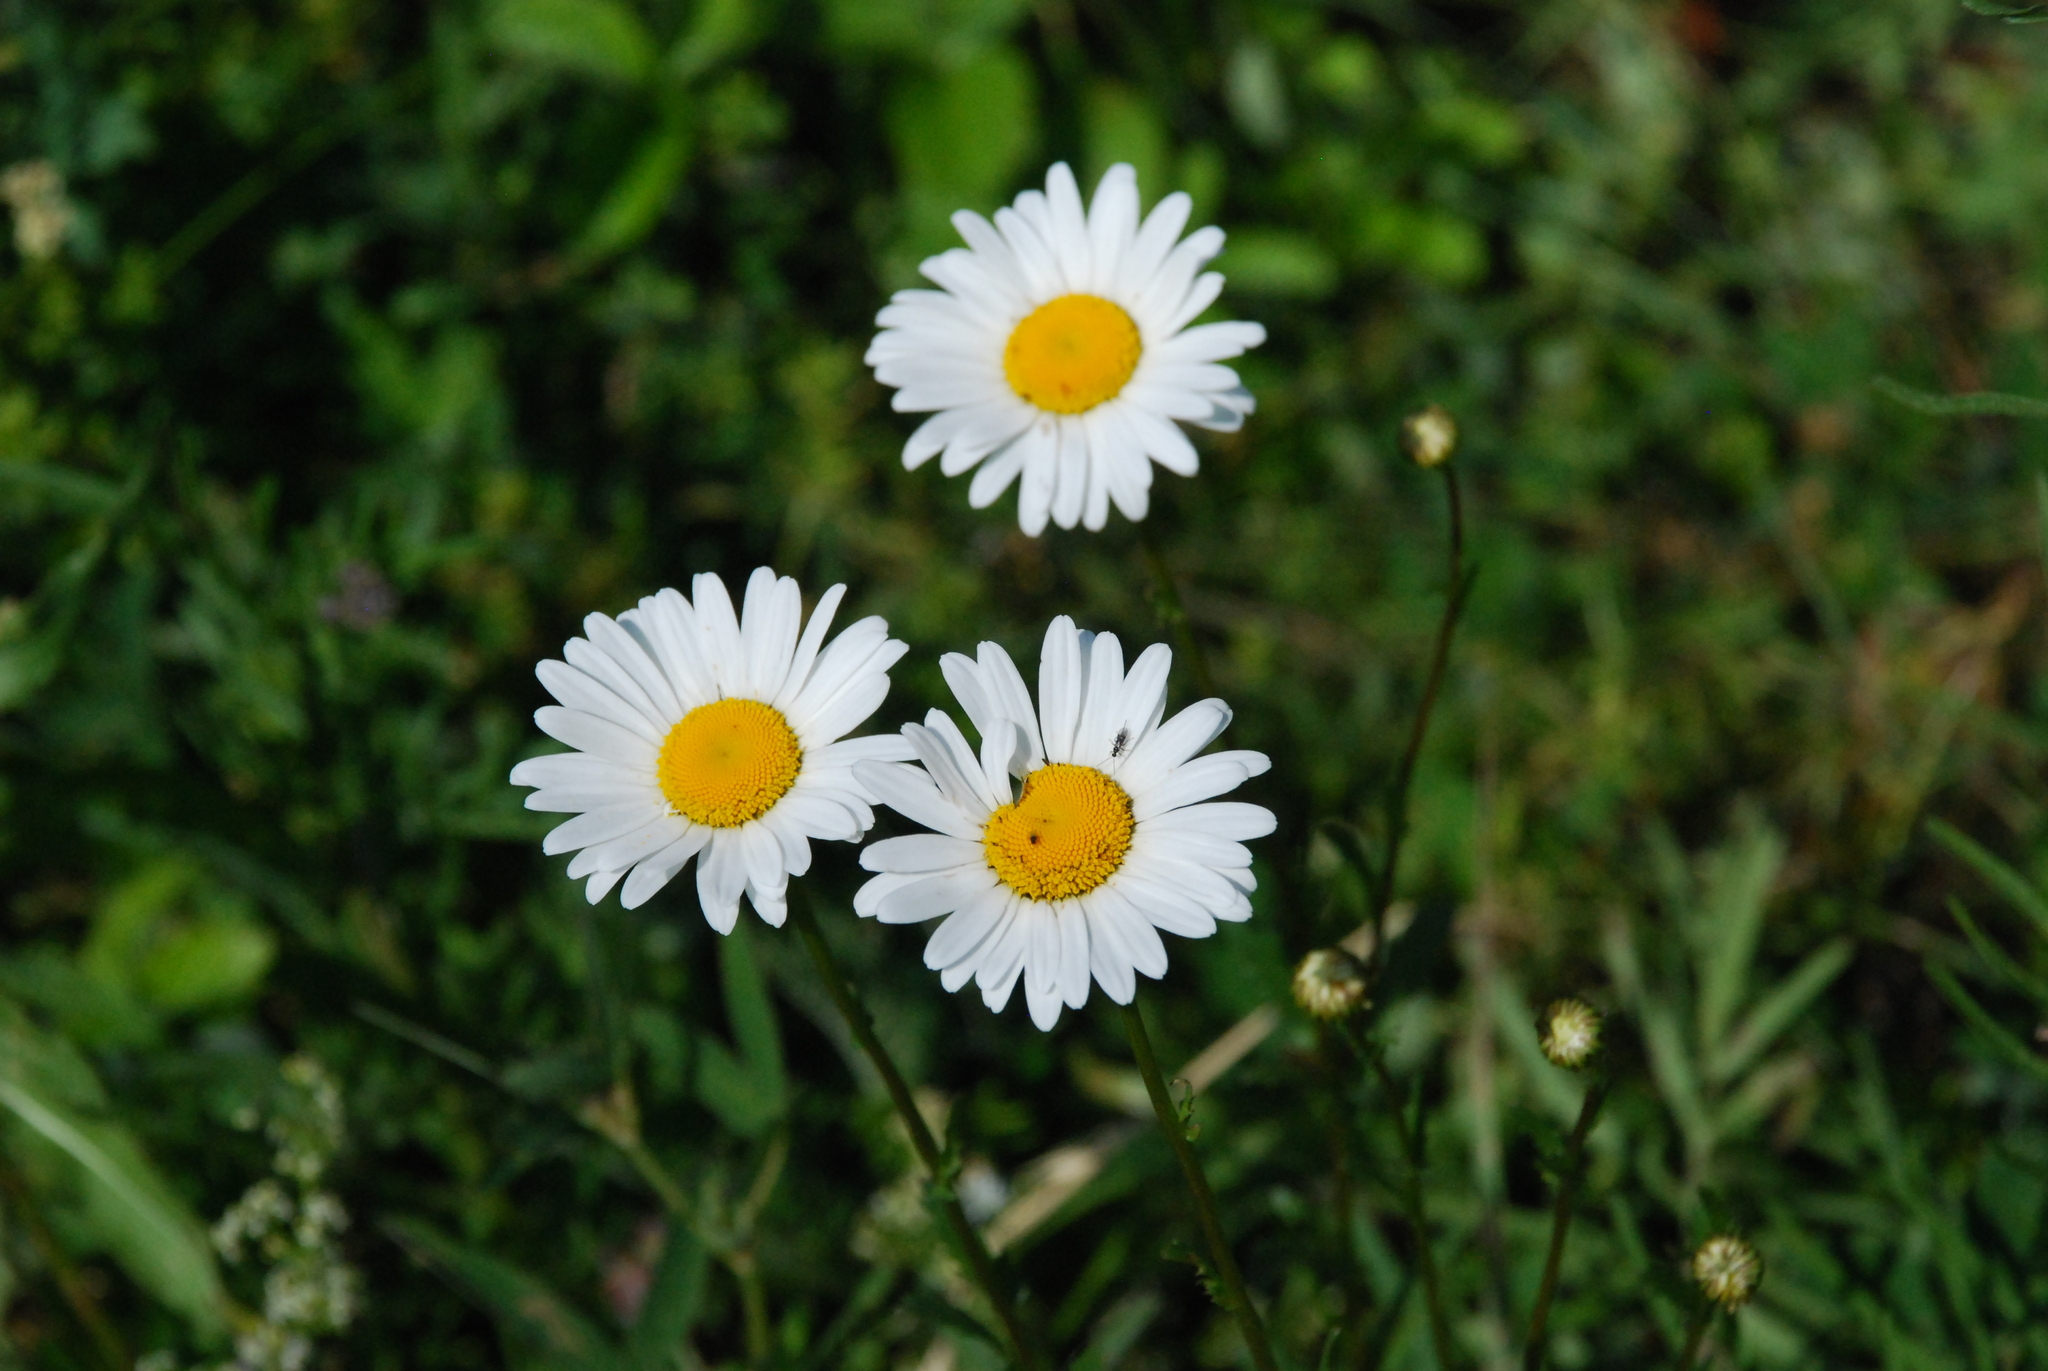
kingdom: Plantae
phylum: Tracheophyta
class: Magnoliopsida
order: Asterales
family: Asteraceae
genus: Leucanthemum
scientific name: Leucanthemum vulgare
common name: Oxeye daisy
